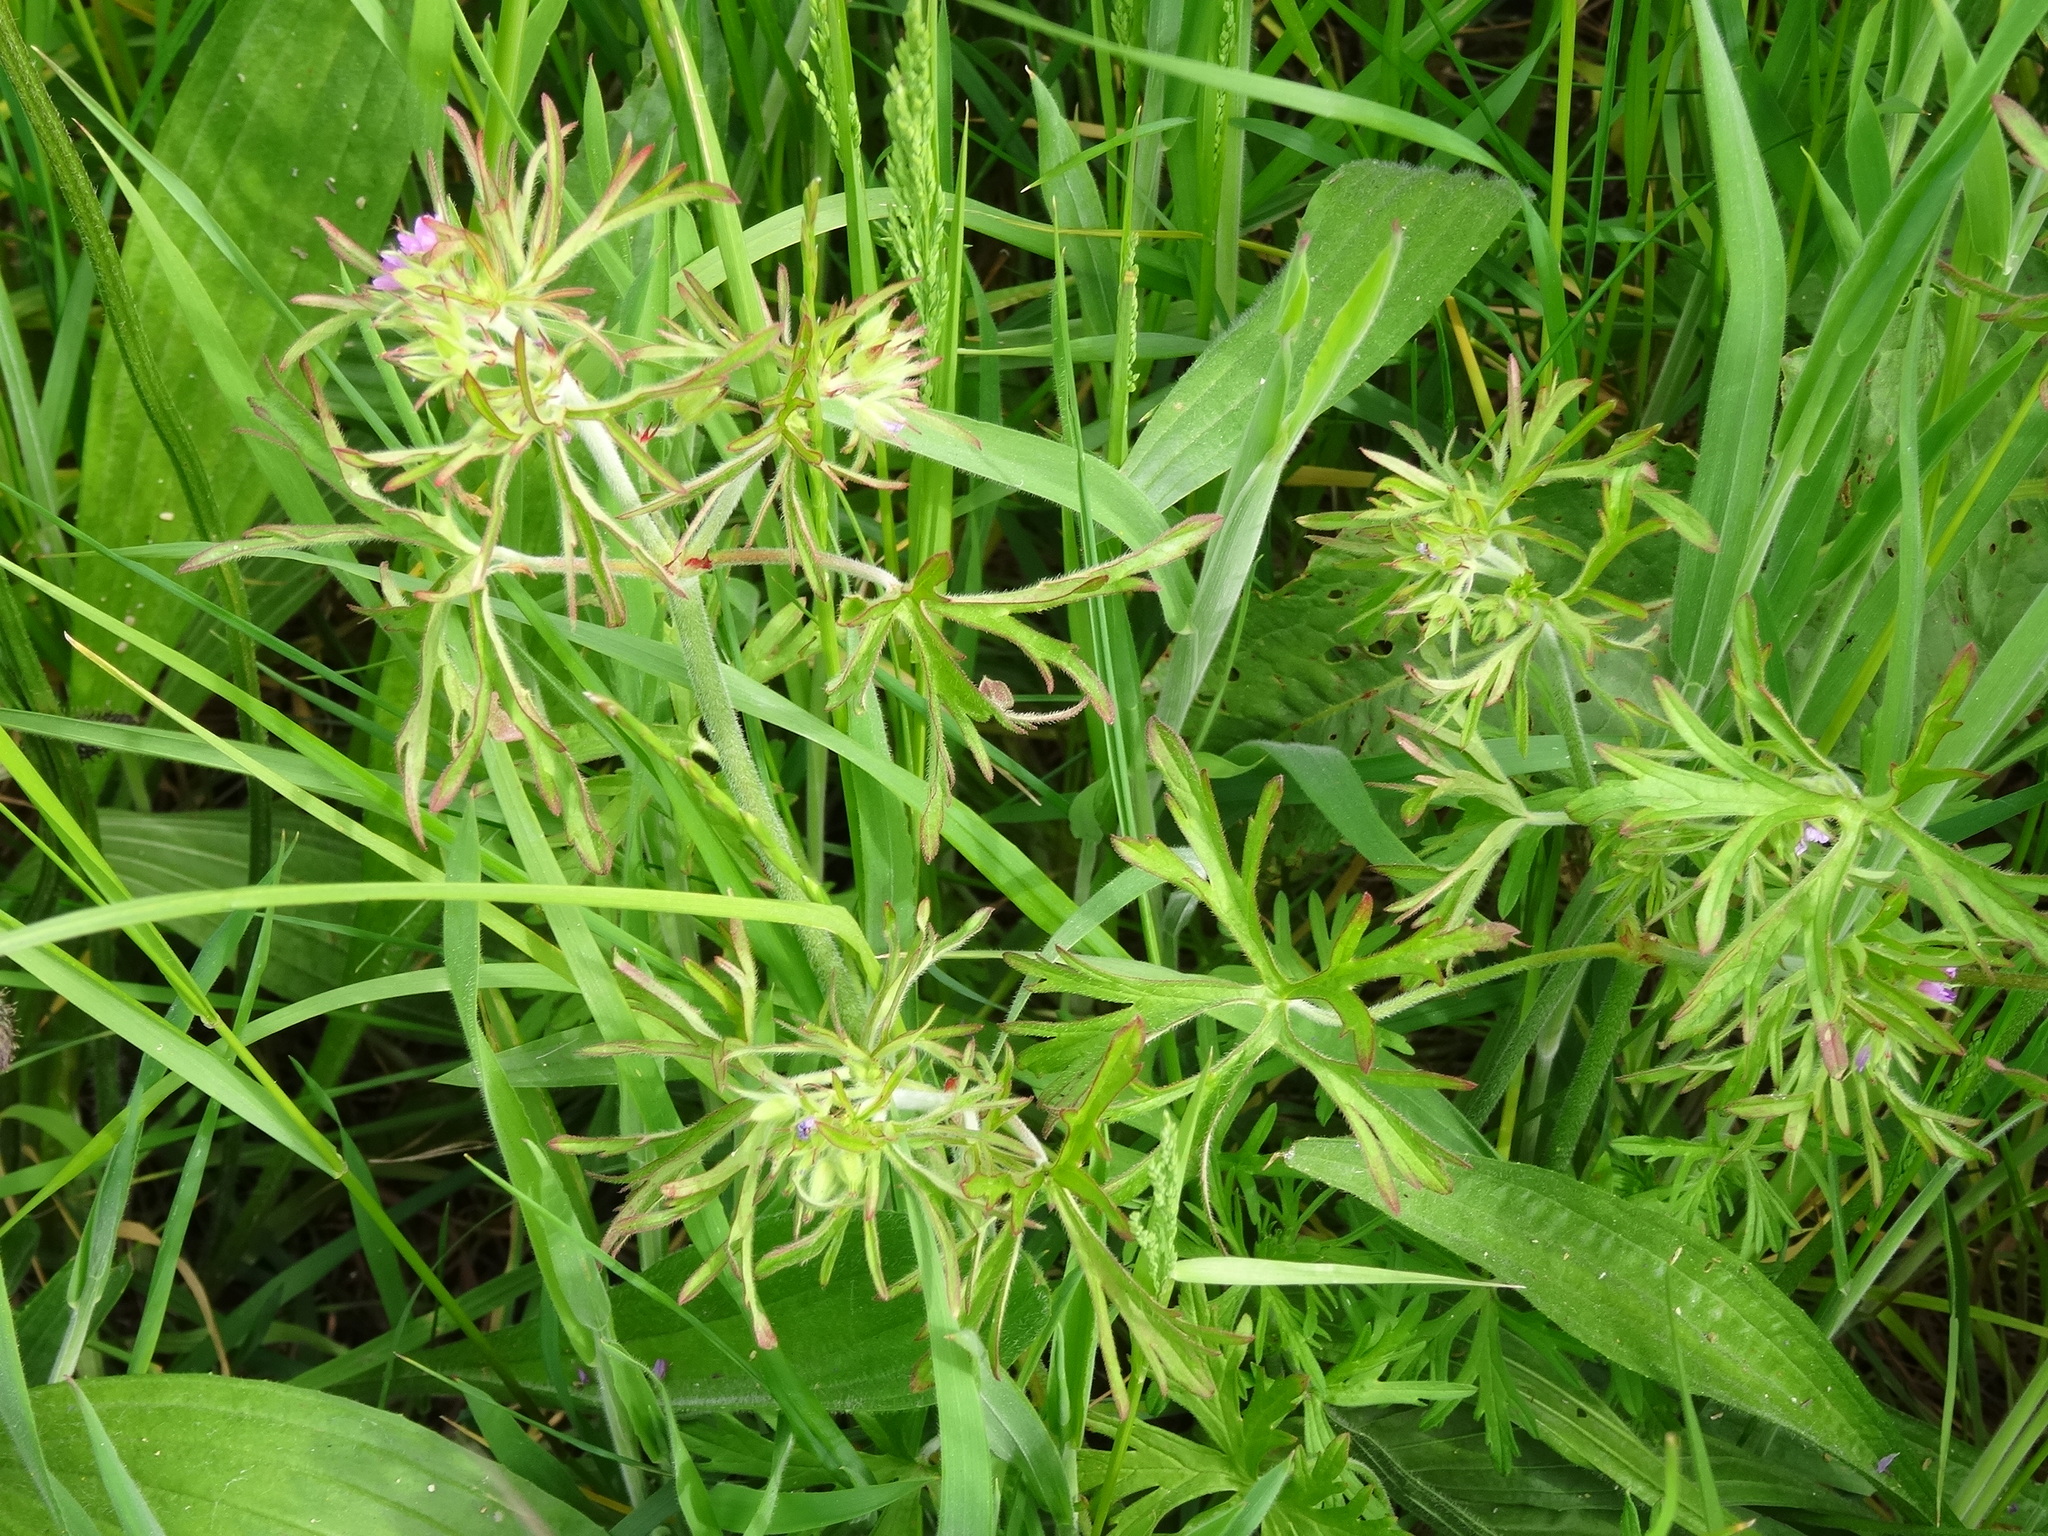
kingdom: Plantae
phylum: Tracheophyta
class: Magnoliopsida
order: Geraniales
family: Geraniaceae
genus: Geranium
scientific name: Geranium dissectum
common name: Cut-leaved crane's-bill
